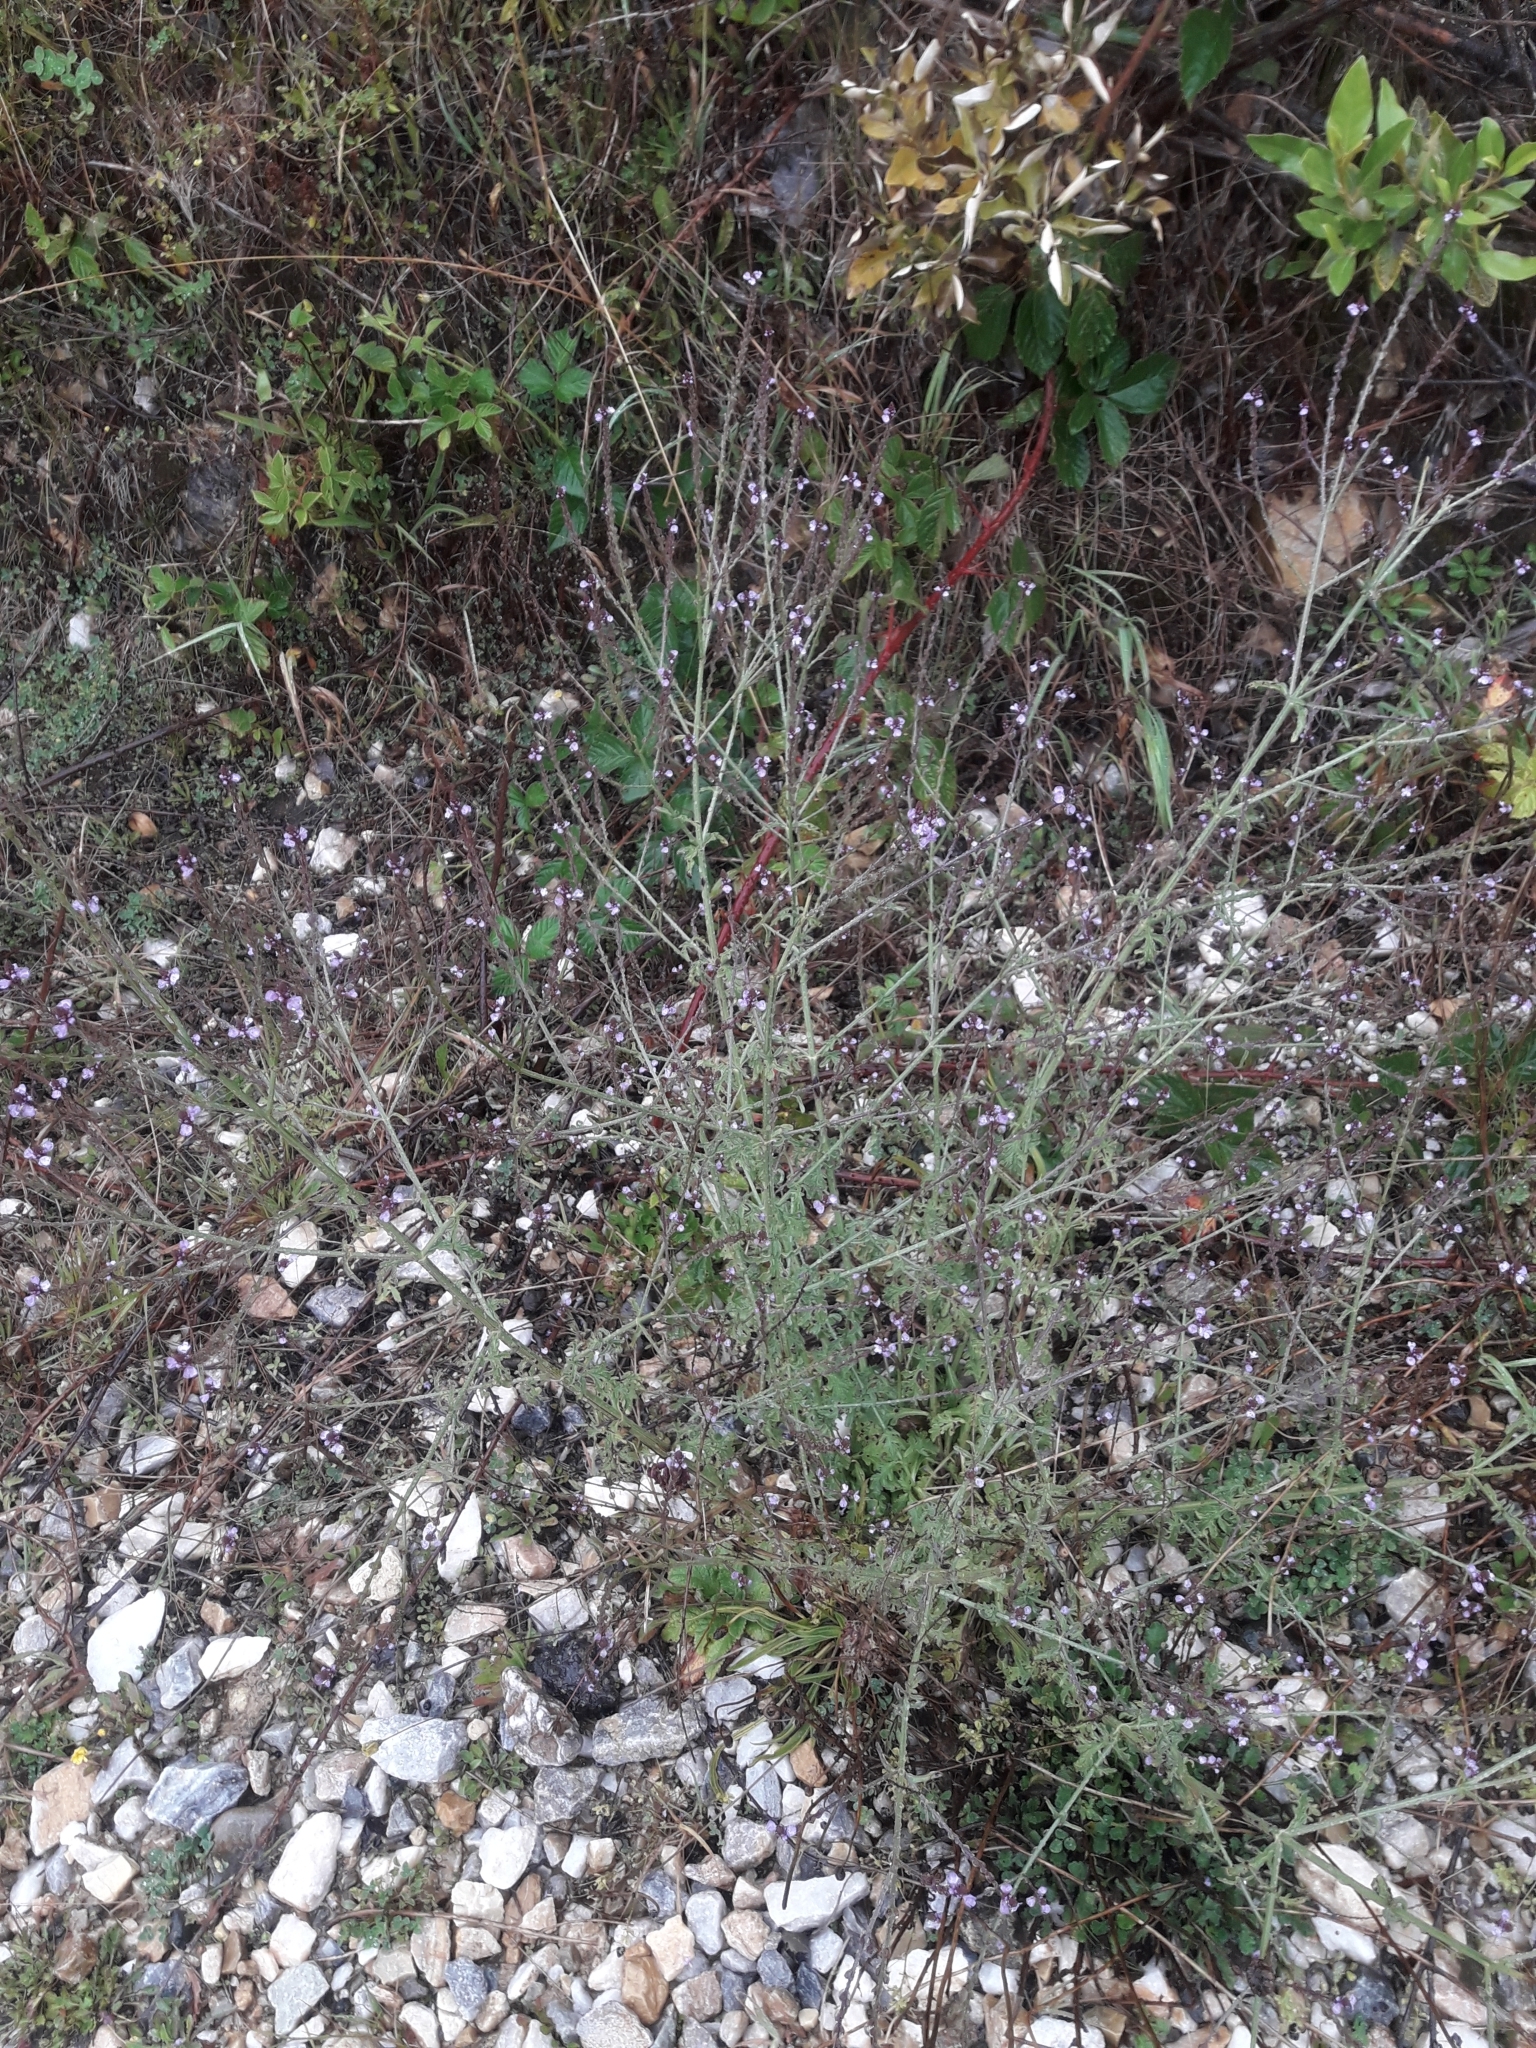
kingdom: Plantae
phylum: Tracheophyta
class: Magnoliopsida
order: Lamiales
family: Verbenaceae
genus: Verbena
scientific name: Verbena officinalis
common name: Vervain
